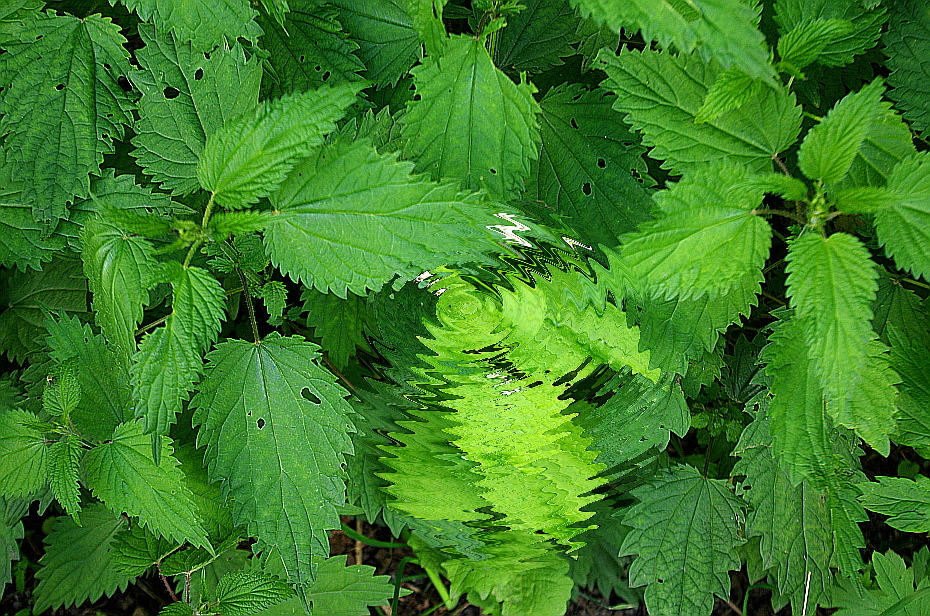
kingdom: Plantae
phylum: Tracheophyta
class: Magnoliopsida
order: Rosales
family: Urticaceae
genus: Urtica
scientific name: Urtica dioica
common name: Common nettle
